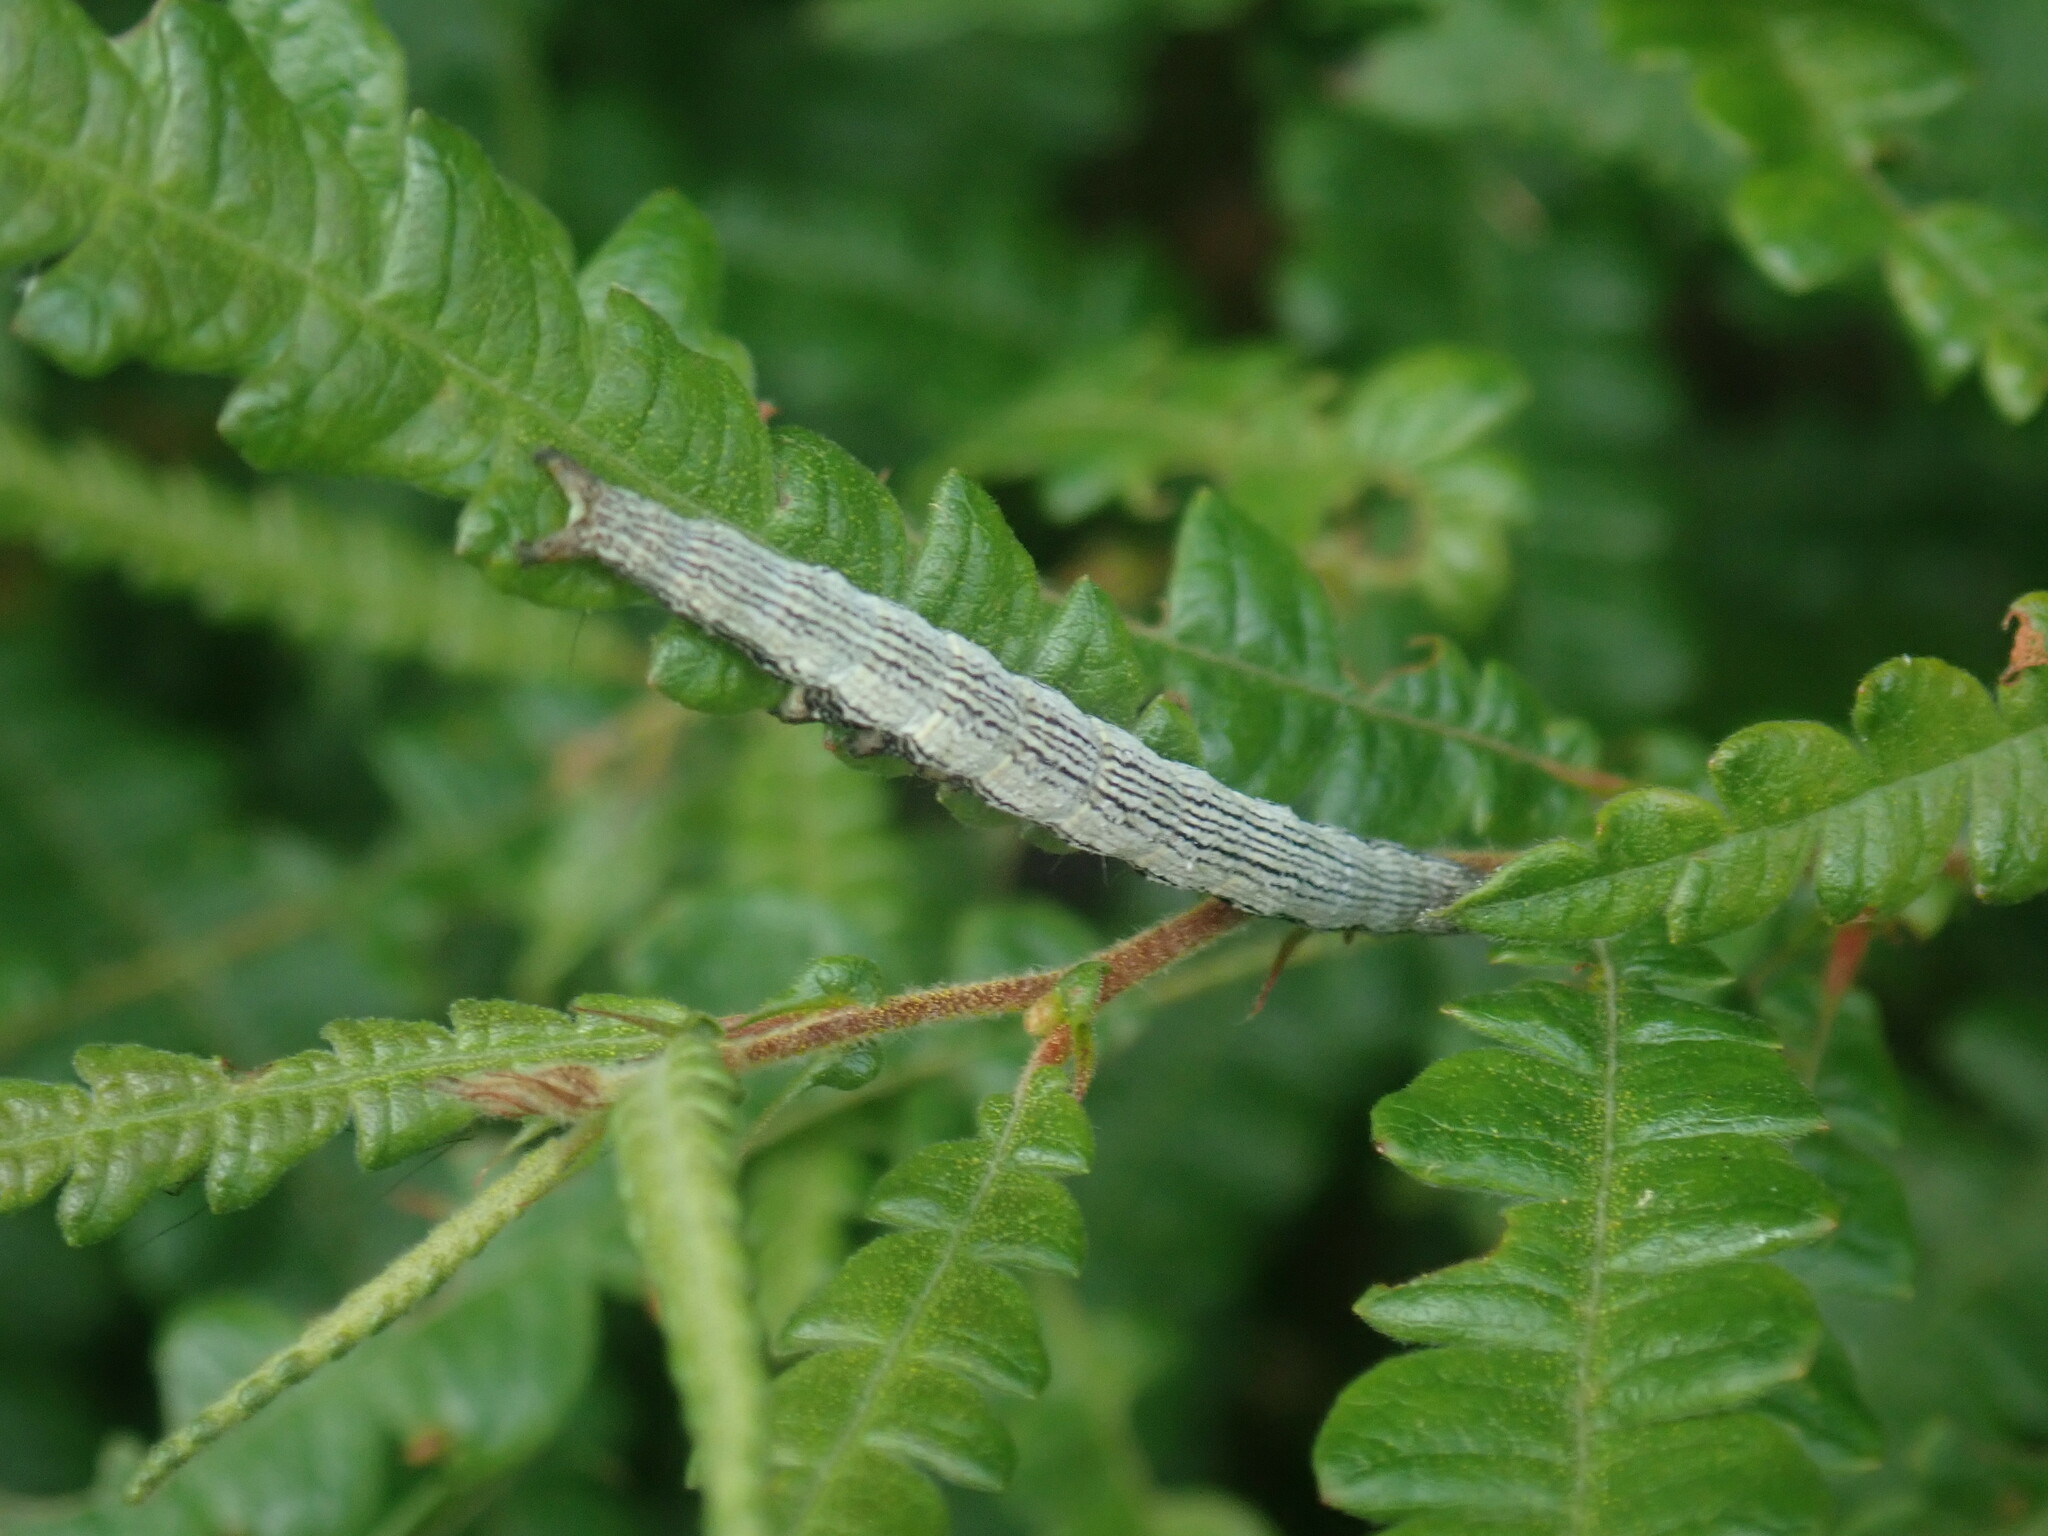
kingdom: Animalia
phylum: Arthropoda
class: Insecta
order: Lepidoptera
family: Erebidae
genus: Catocala
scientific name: Catocala antinympha
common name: Sweetfern underwing
